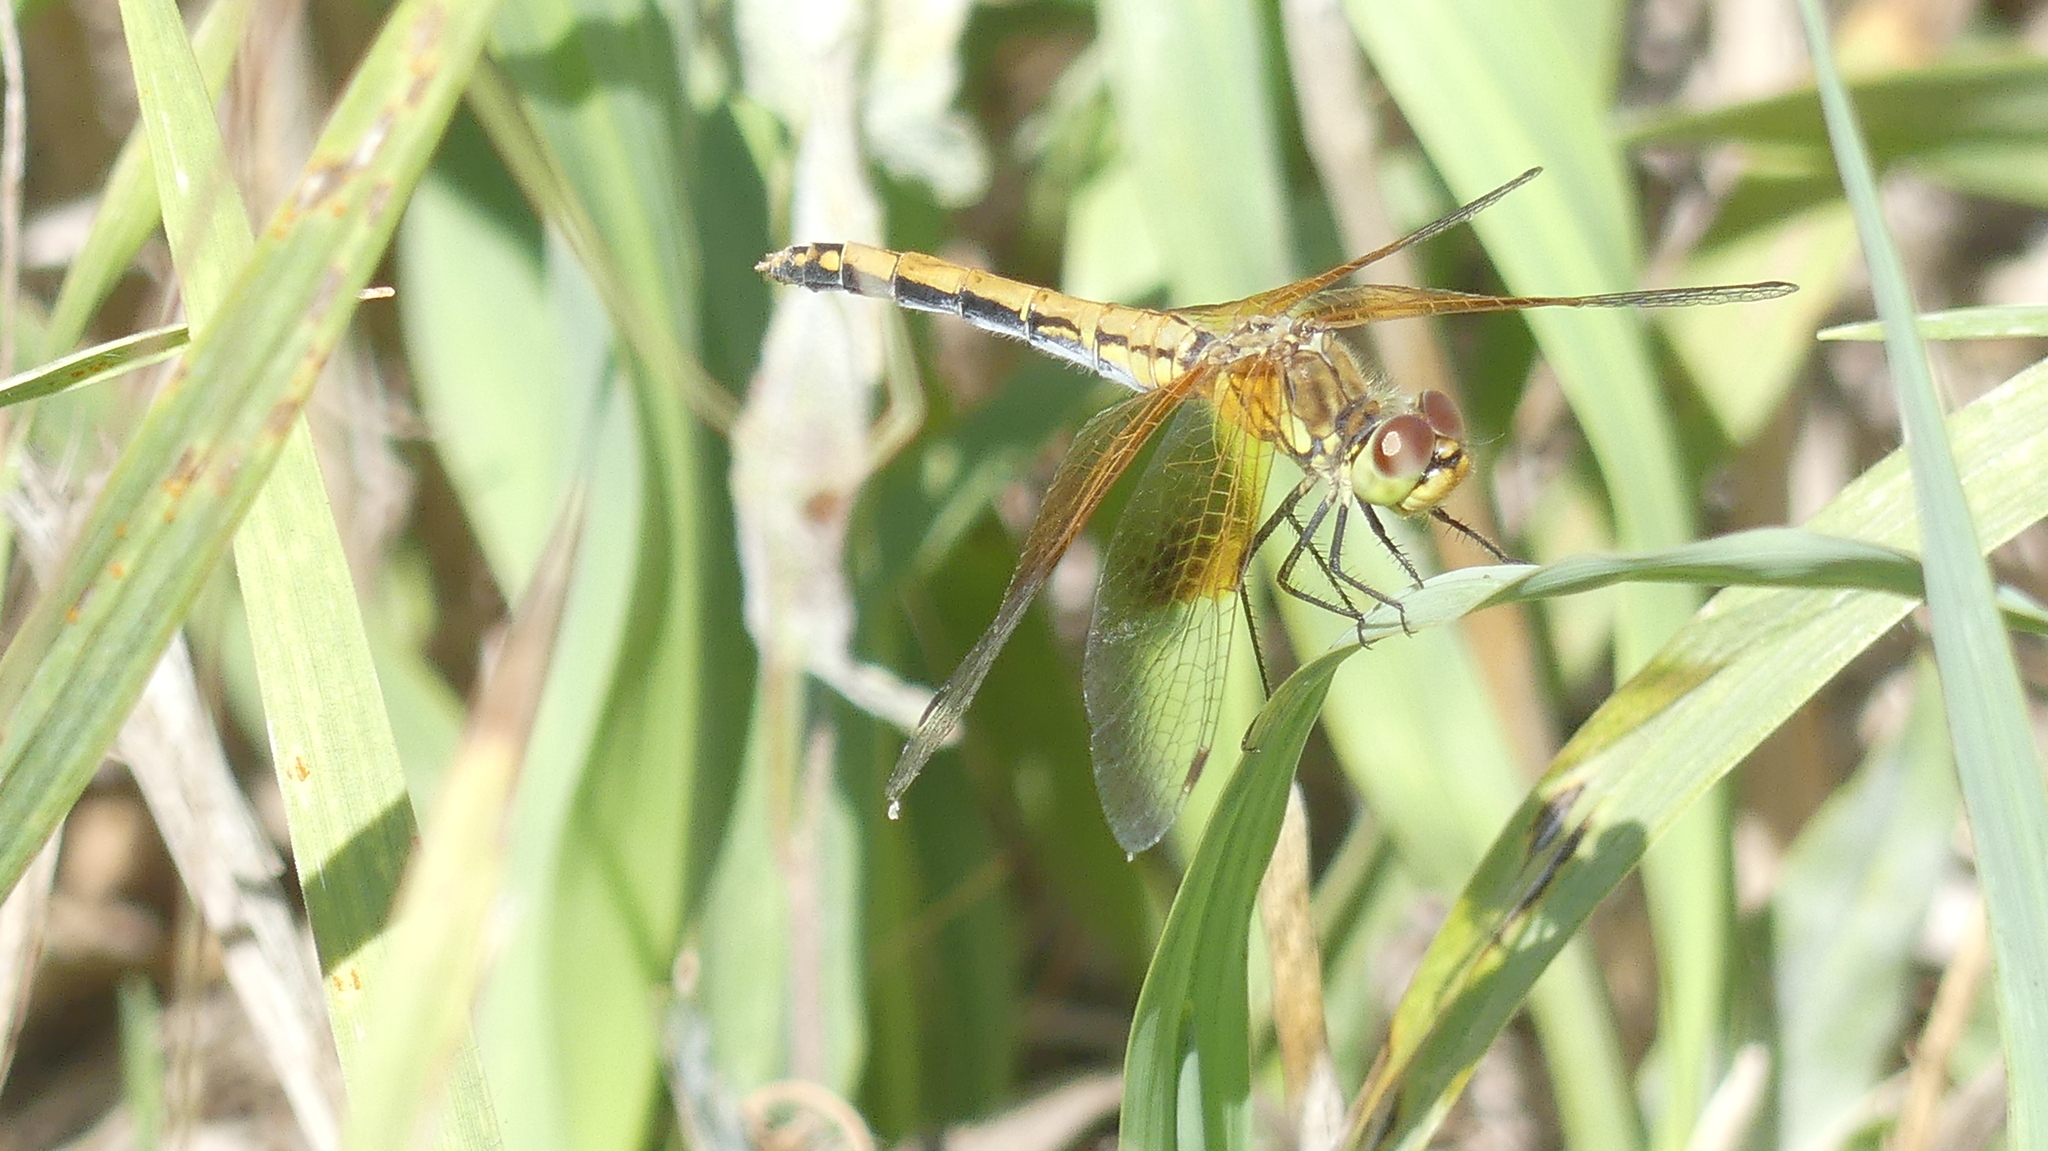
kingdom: Animalia
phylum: Arthropoda
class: Insecta
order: Odonata
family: Libellulidae
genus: Sympetrum
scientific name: Sympetrum semicinctum
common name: Band-winged meadowhawk
